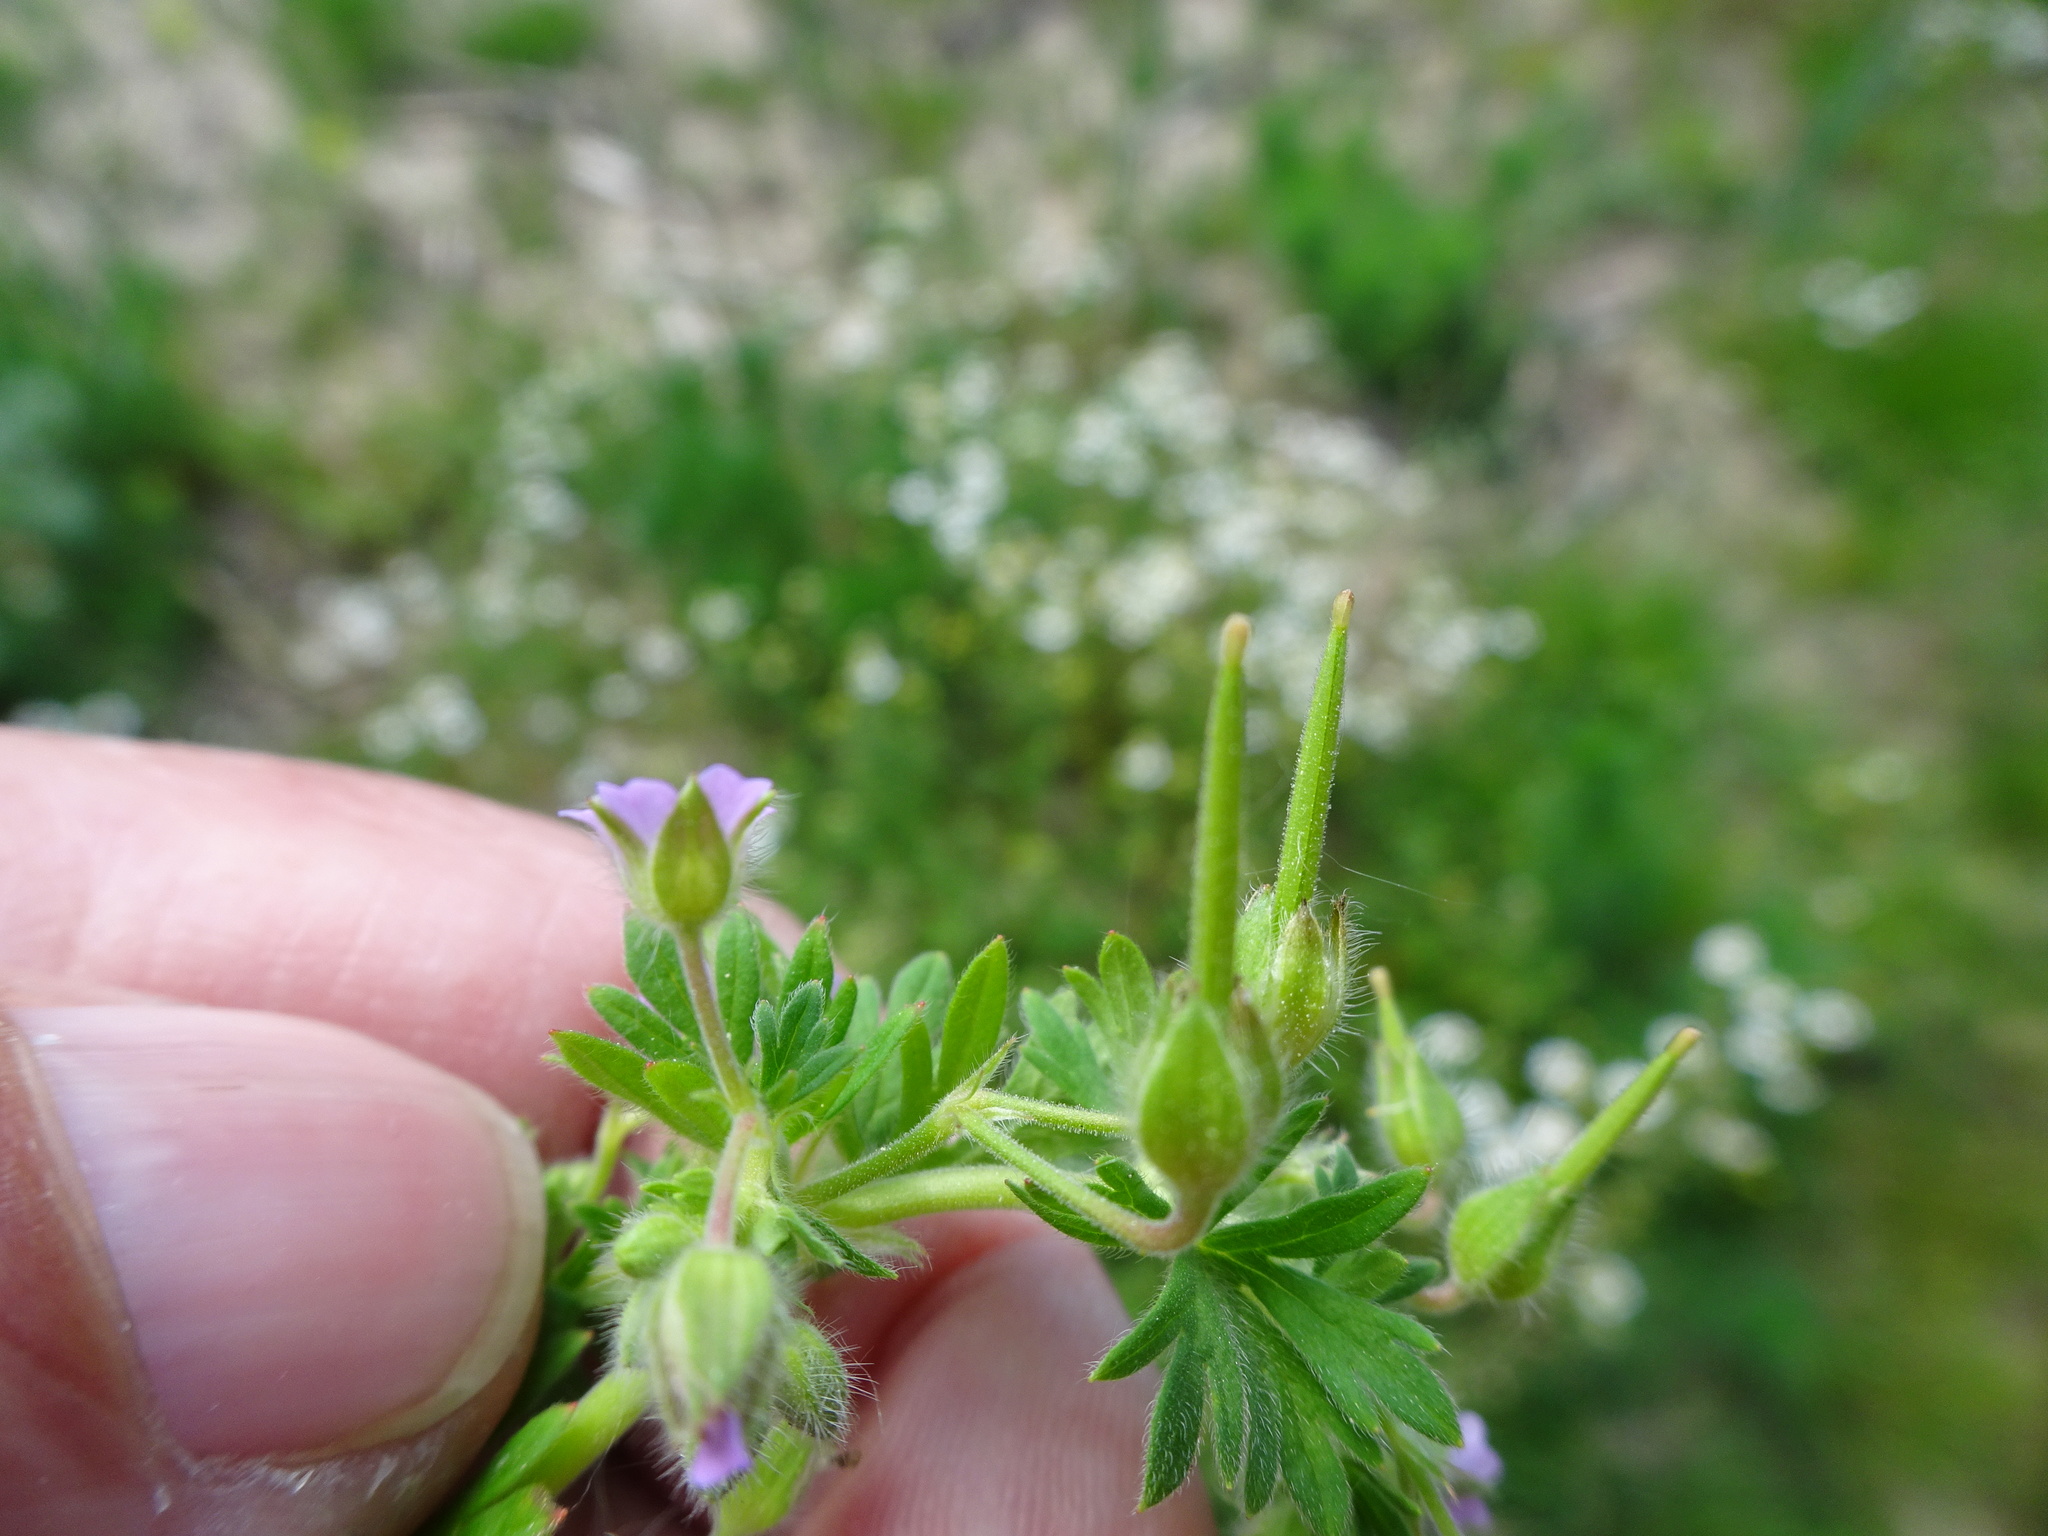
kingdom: Plantae
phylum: Tracheophyta
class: Magnoliopsida
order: Geraniales
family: Geraniaceae
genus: Geranium
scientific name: Geranium pusillum
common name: Small geranium
